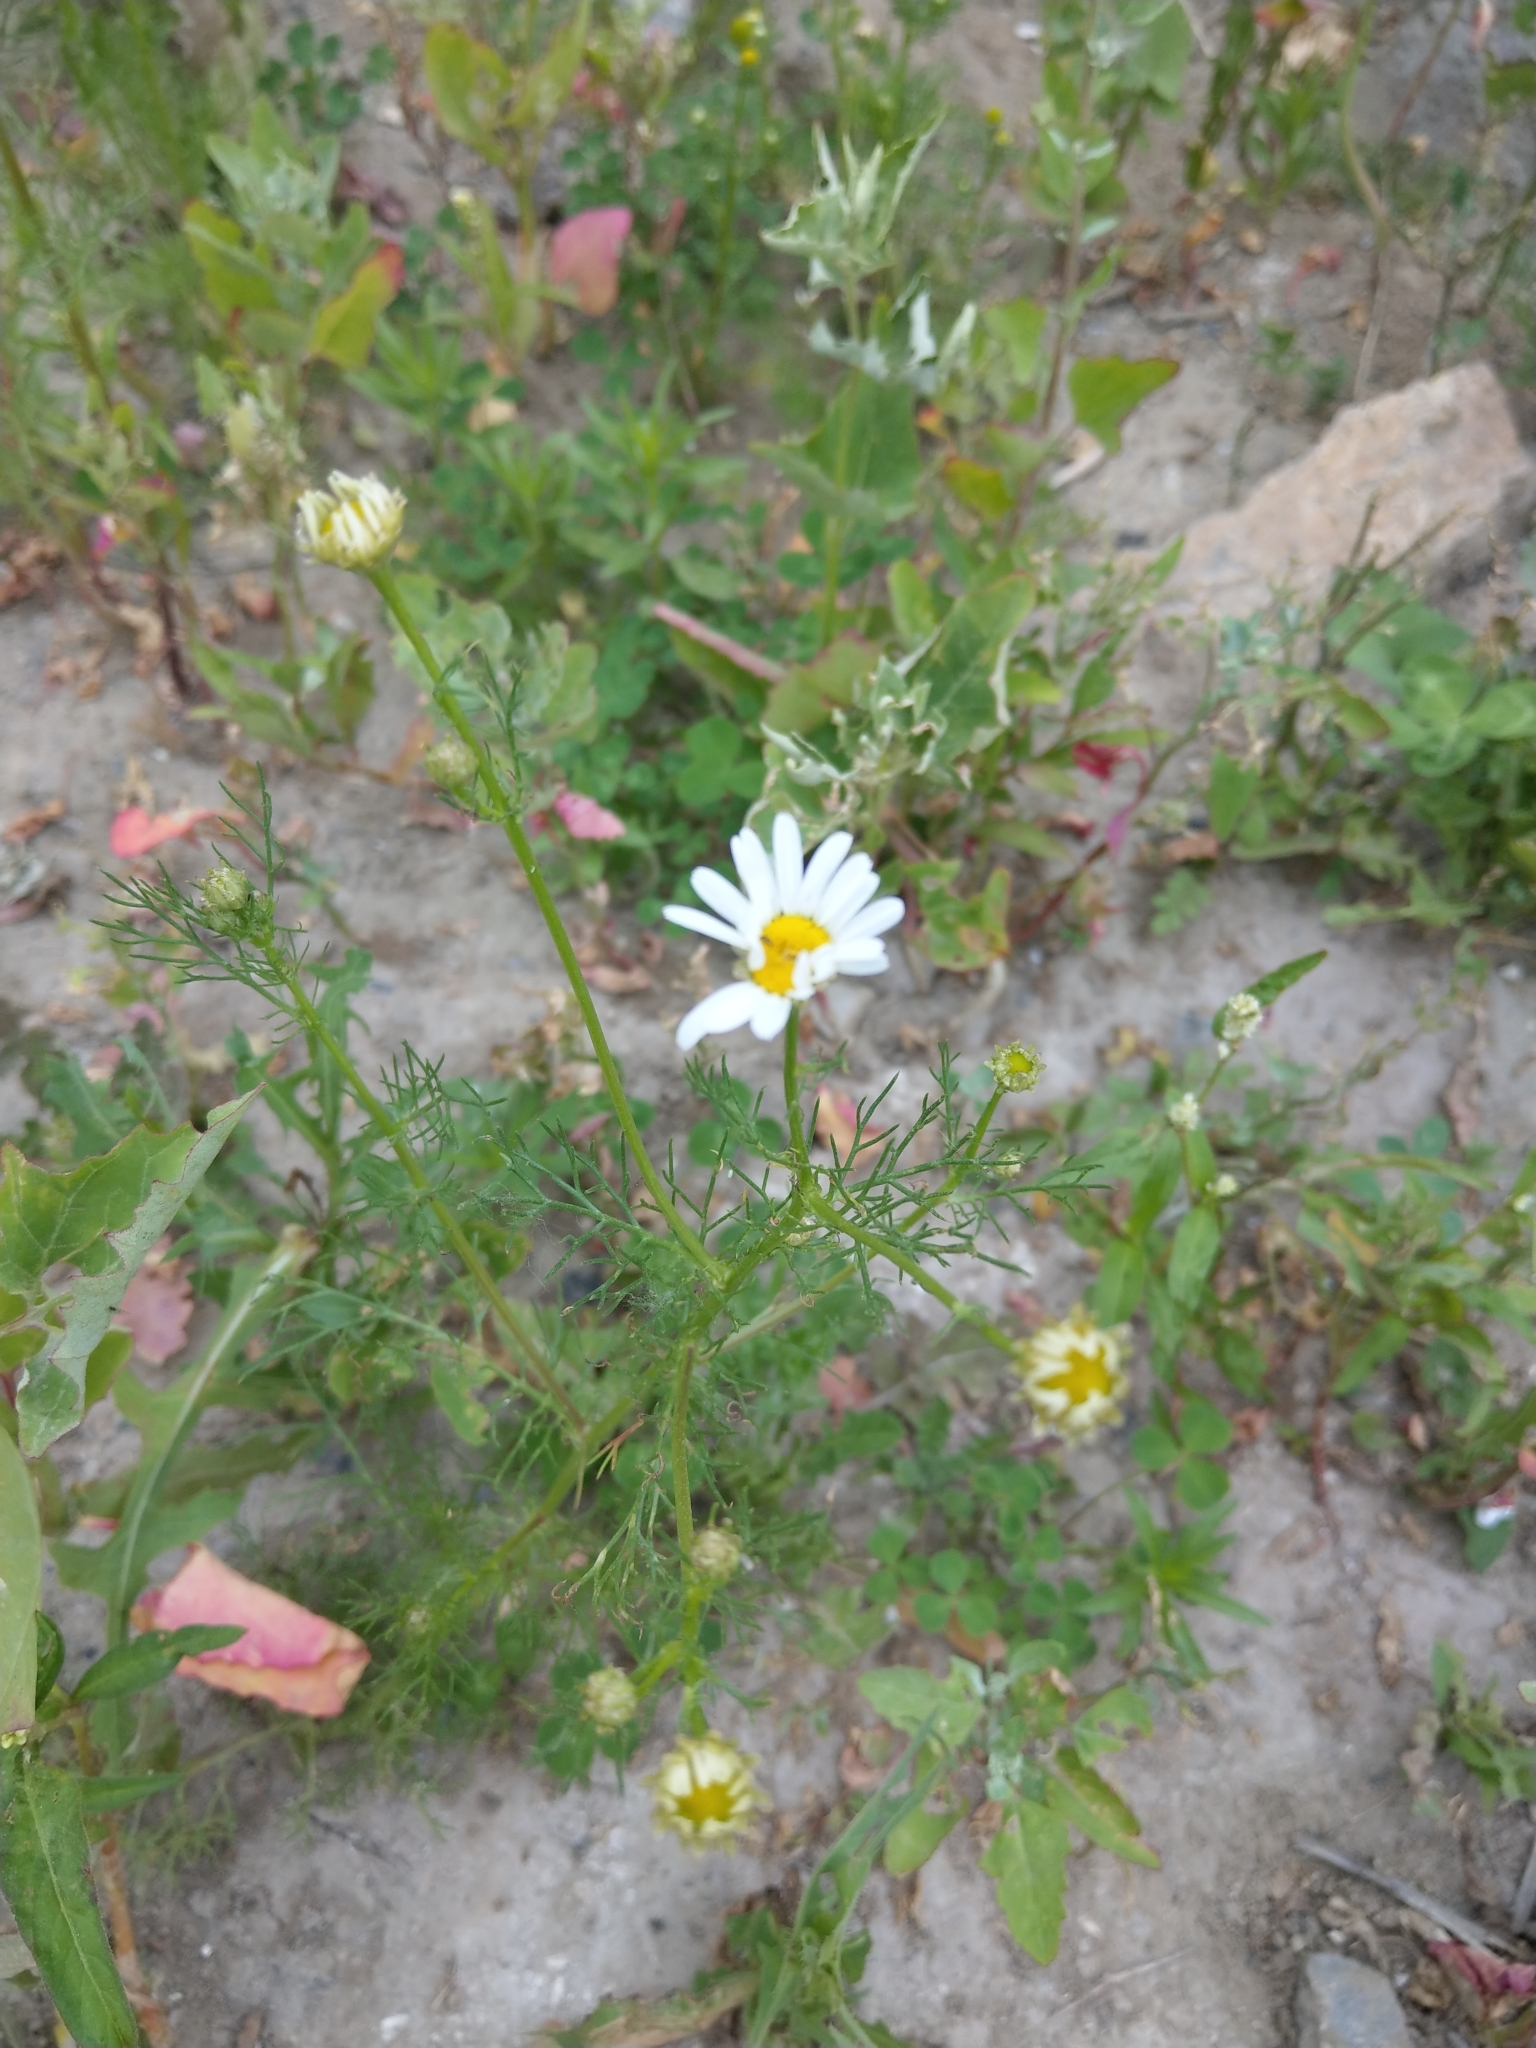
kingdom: Plantae
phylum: Tracheophyta
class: Magnoliopsida
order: Asterales
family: Asteraceae
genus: Tripleurospermum
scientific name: Tripleurospermum inodorum
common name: Scentless mayweed
